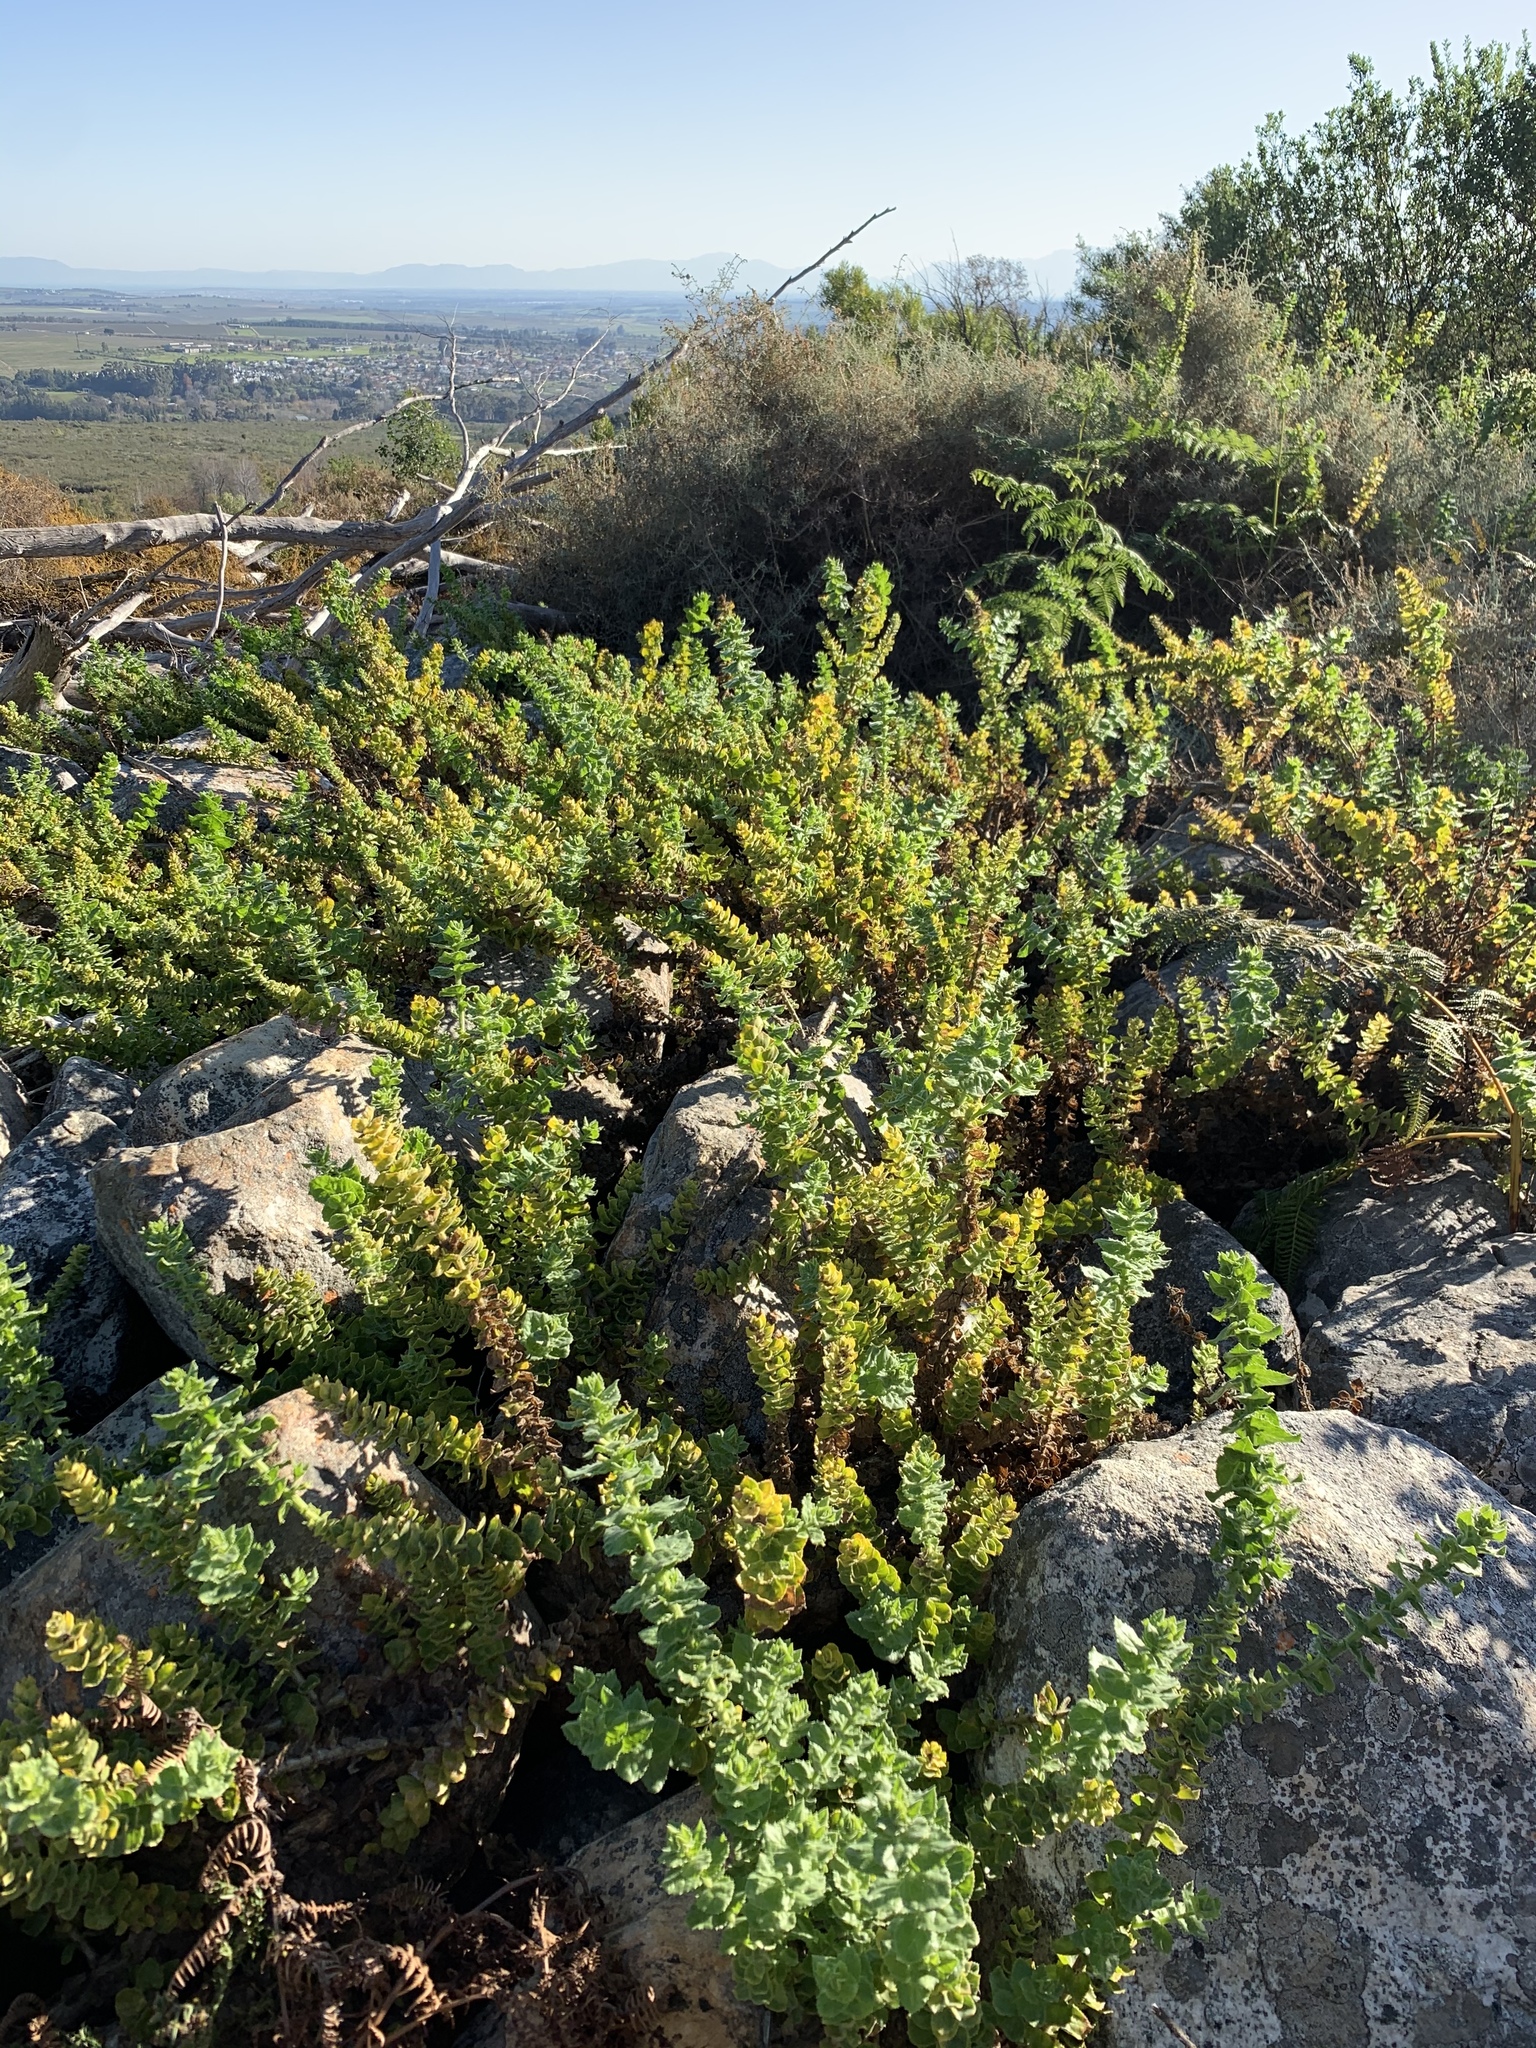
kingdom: Plantae
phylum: Tracheophyta
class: Magnoliopsida
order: Lamiales
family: Scrophulariaceae
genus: Oftia
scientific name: Oftia africana
